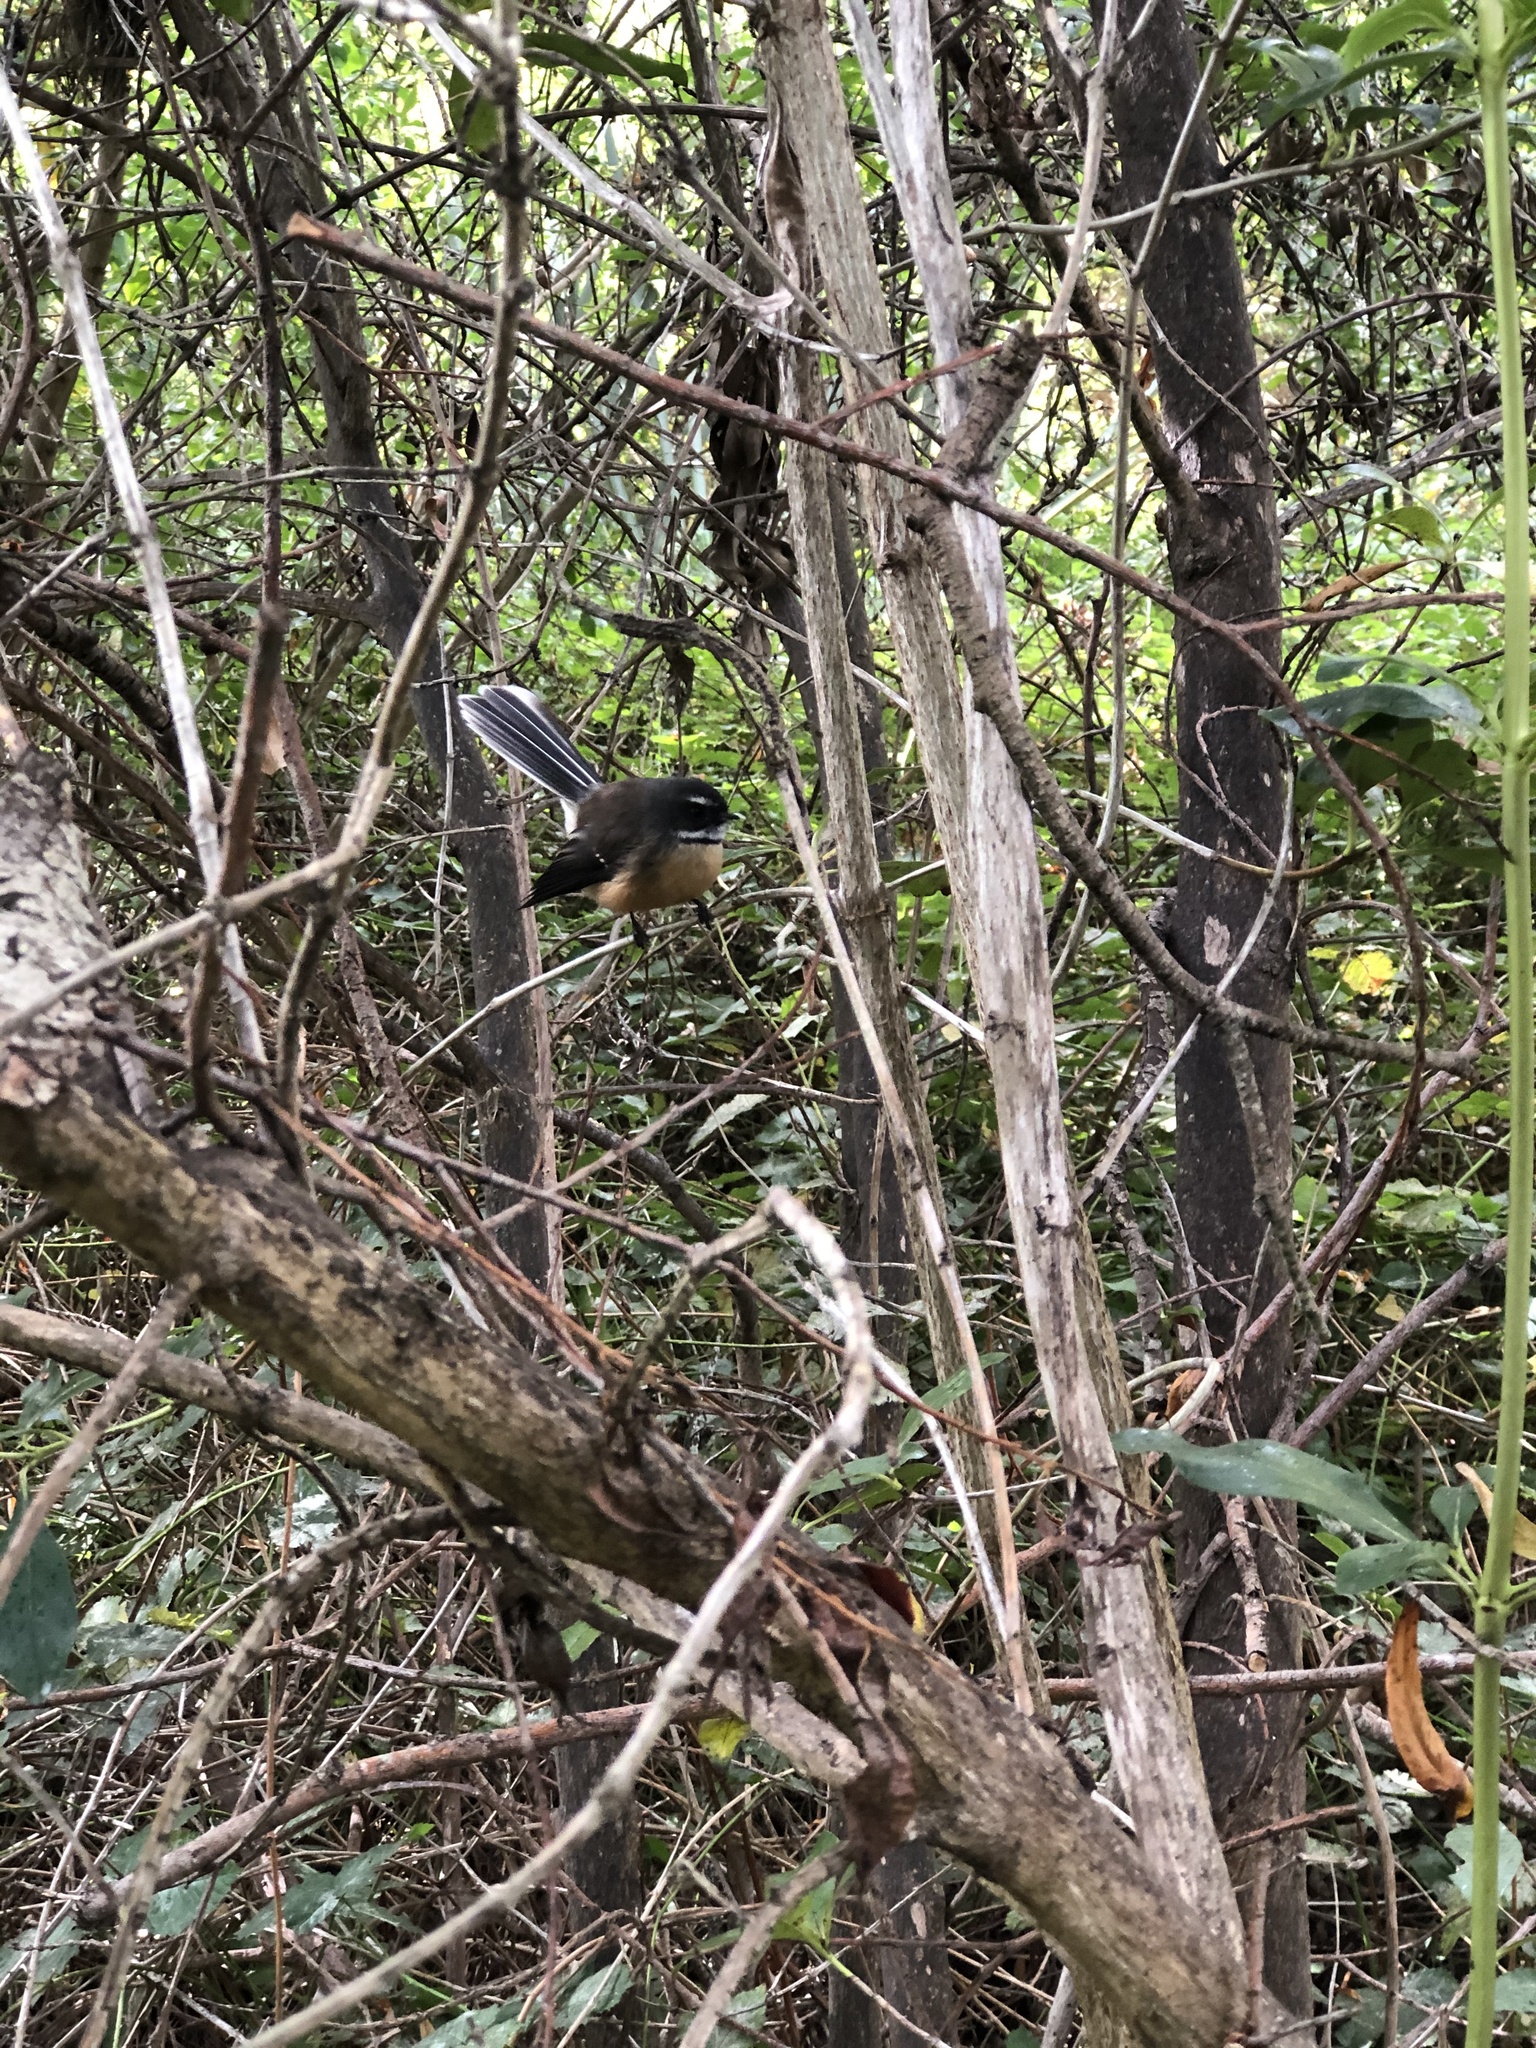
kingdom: Animalia
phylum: Chordata
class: Aves
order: Passeriformes
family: Rhipiduridae
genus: Rhipidura
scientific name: Rhipidura fuliginosa
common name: New zealand fantail
